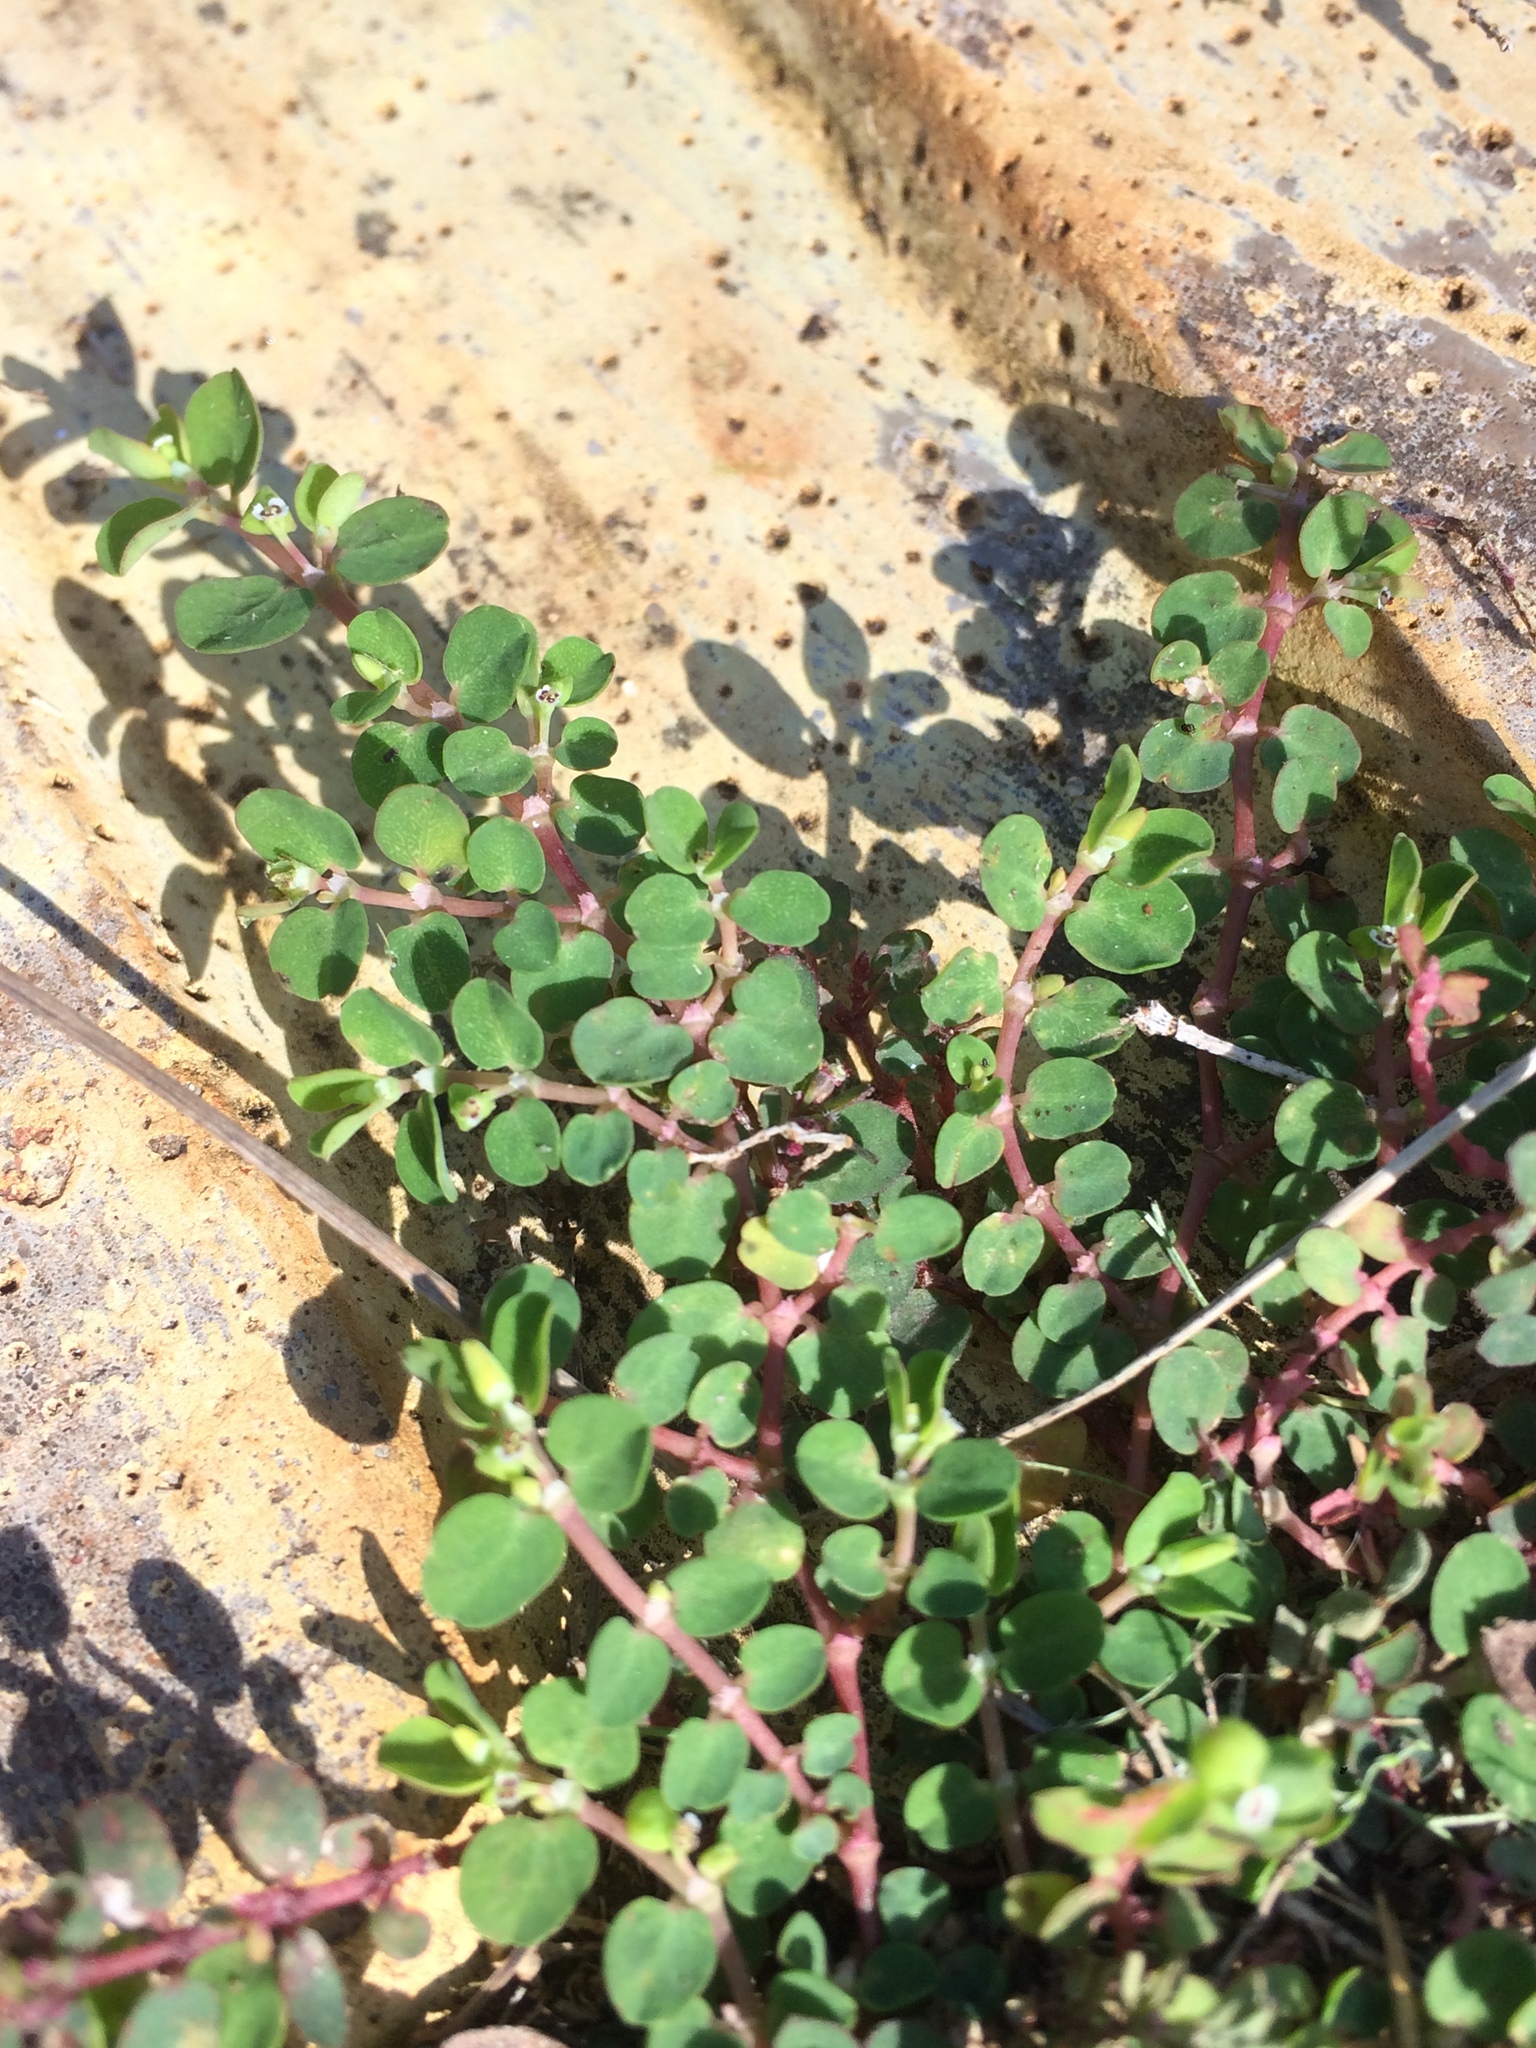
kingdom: Plantae
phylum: Tracheophyta
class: Magnoliopsida
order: Malpighiales
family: Euphorbiaceae
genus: Euphorbia
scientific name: Euphorbia serpens
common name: Matted sandmat
